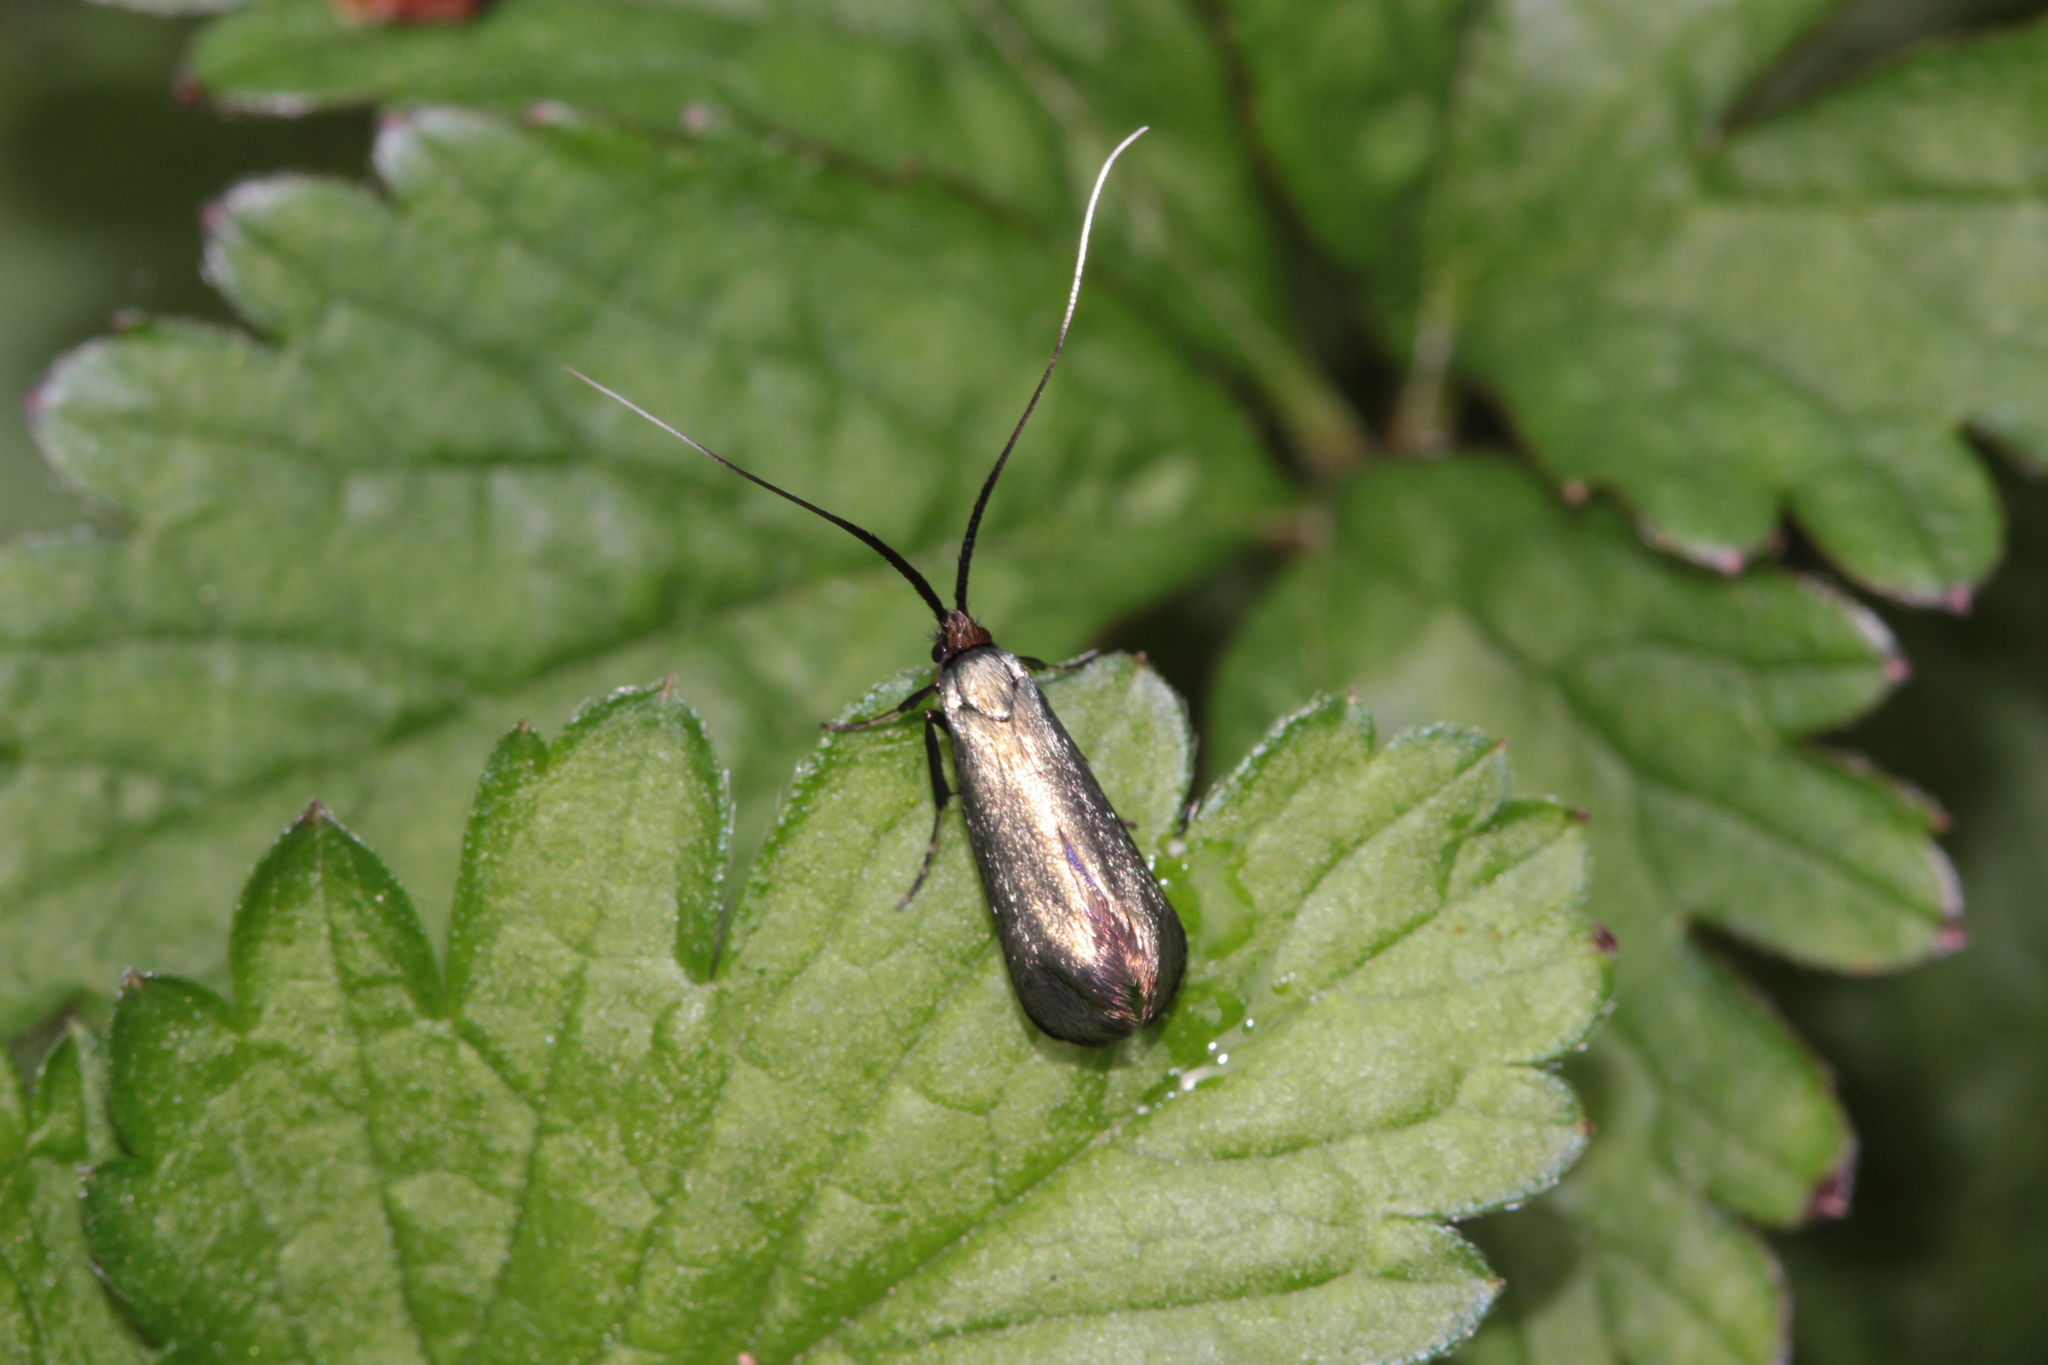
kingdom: Animalia
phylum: Arthropoda
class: Insecta
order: Lepidoptera
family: Adelidae
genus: Adela
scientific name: Adela viridella
